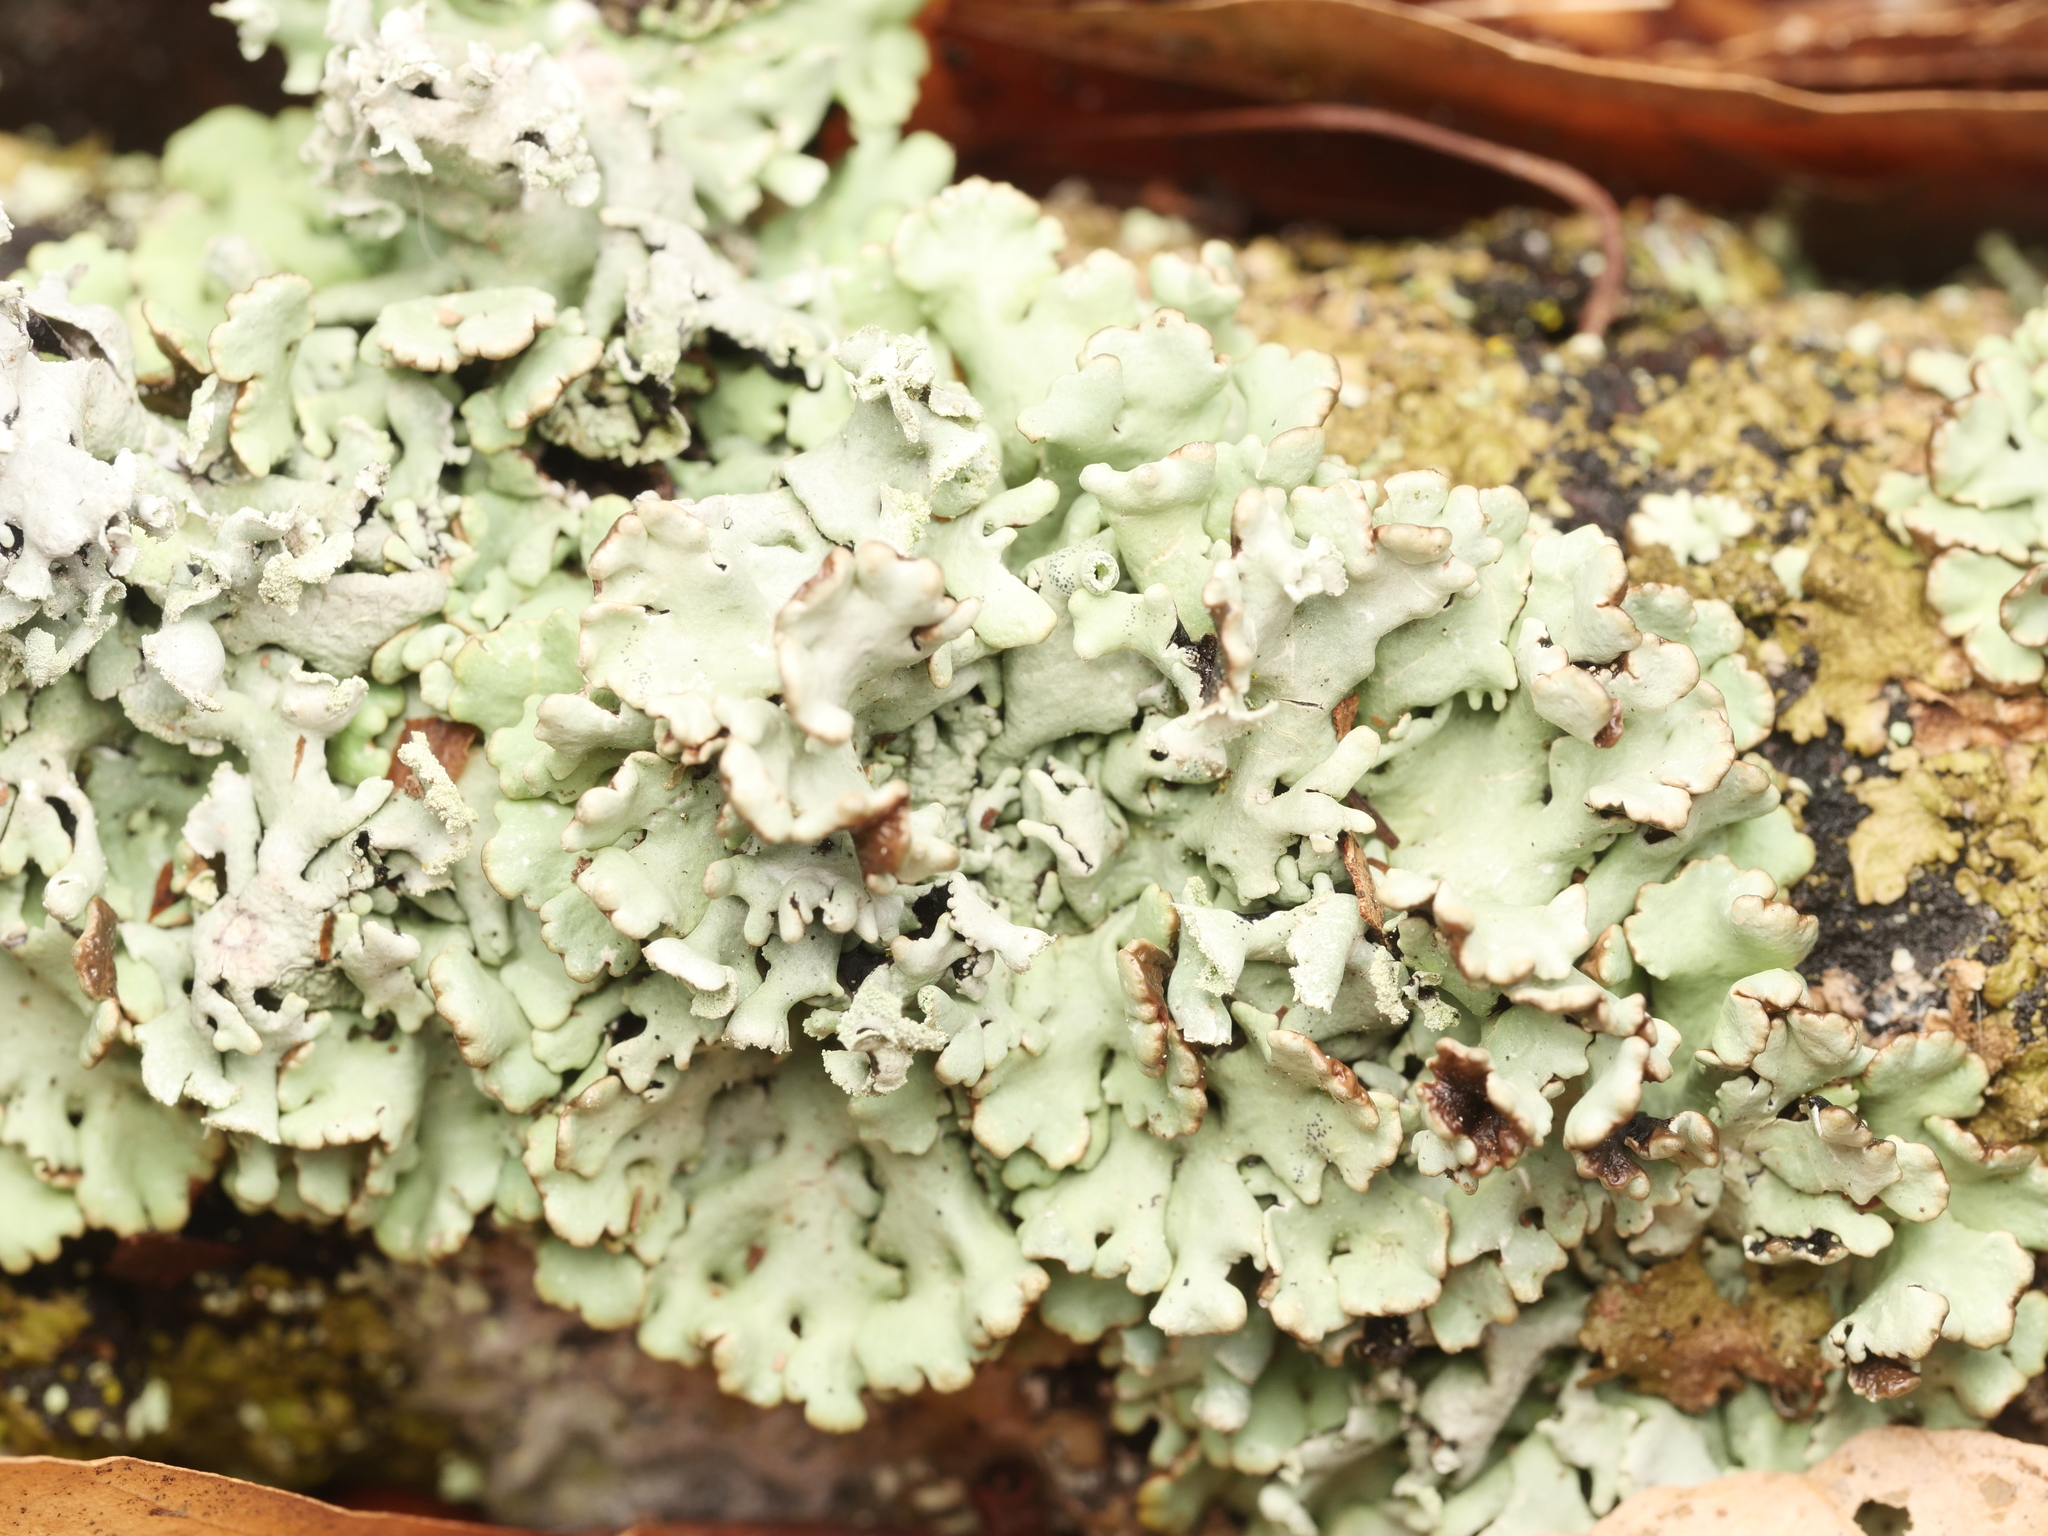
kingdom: Fungi
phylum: Ascomycota
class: Lecanoromycetes
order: Lecanorales
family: Parmeliaceae
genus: Hypogymnia
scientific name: Hypogymnia physodes
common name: Dark crottle
